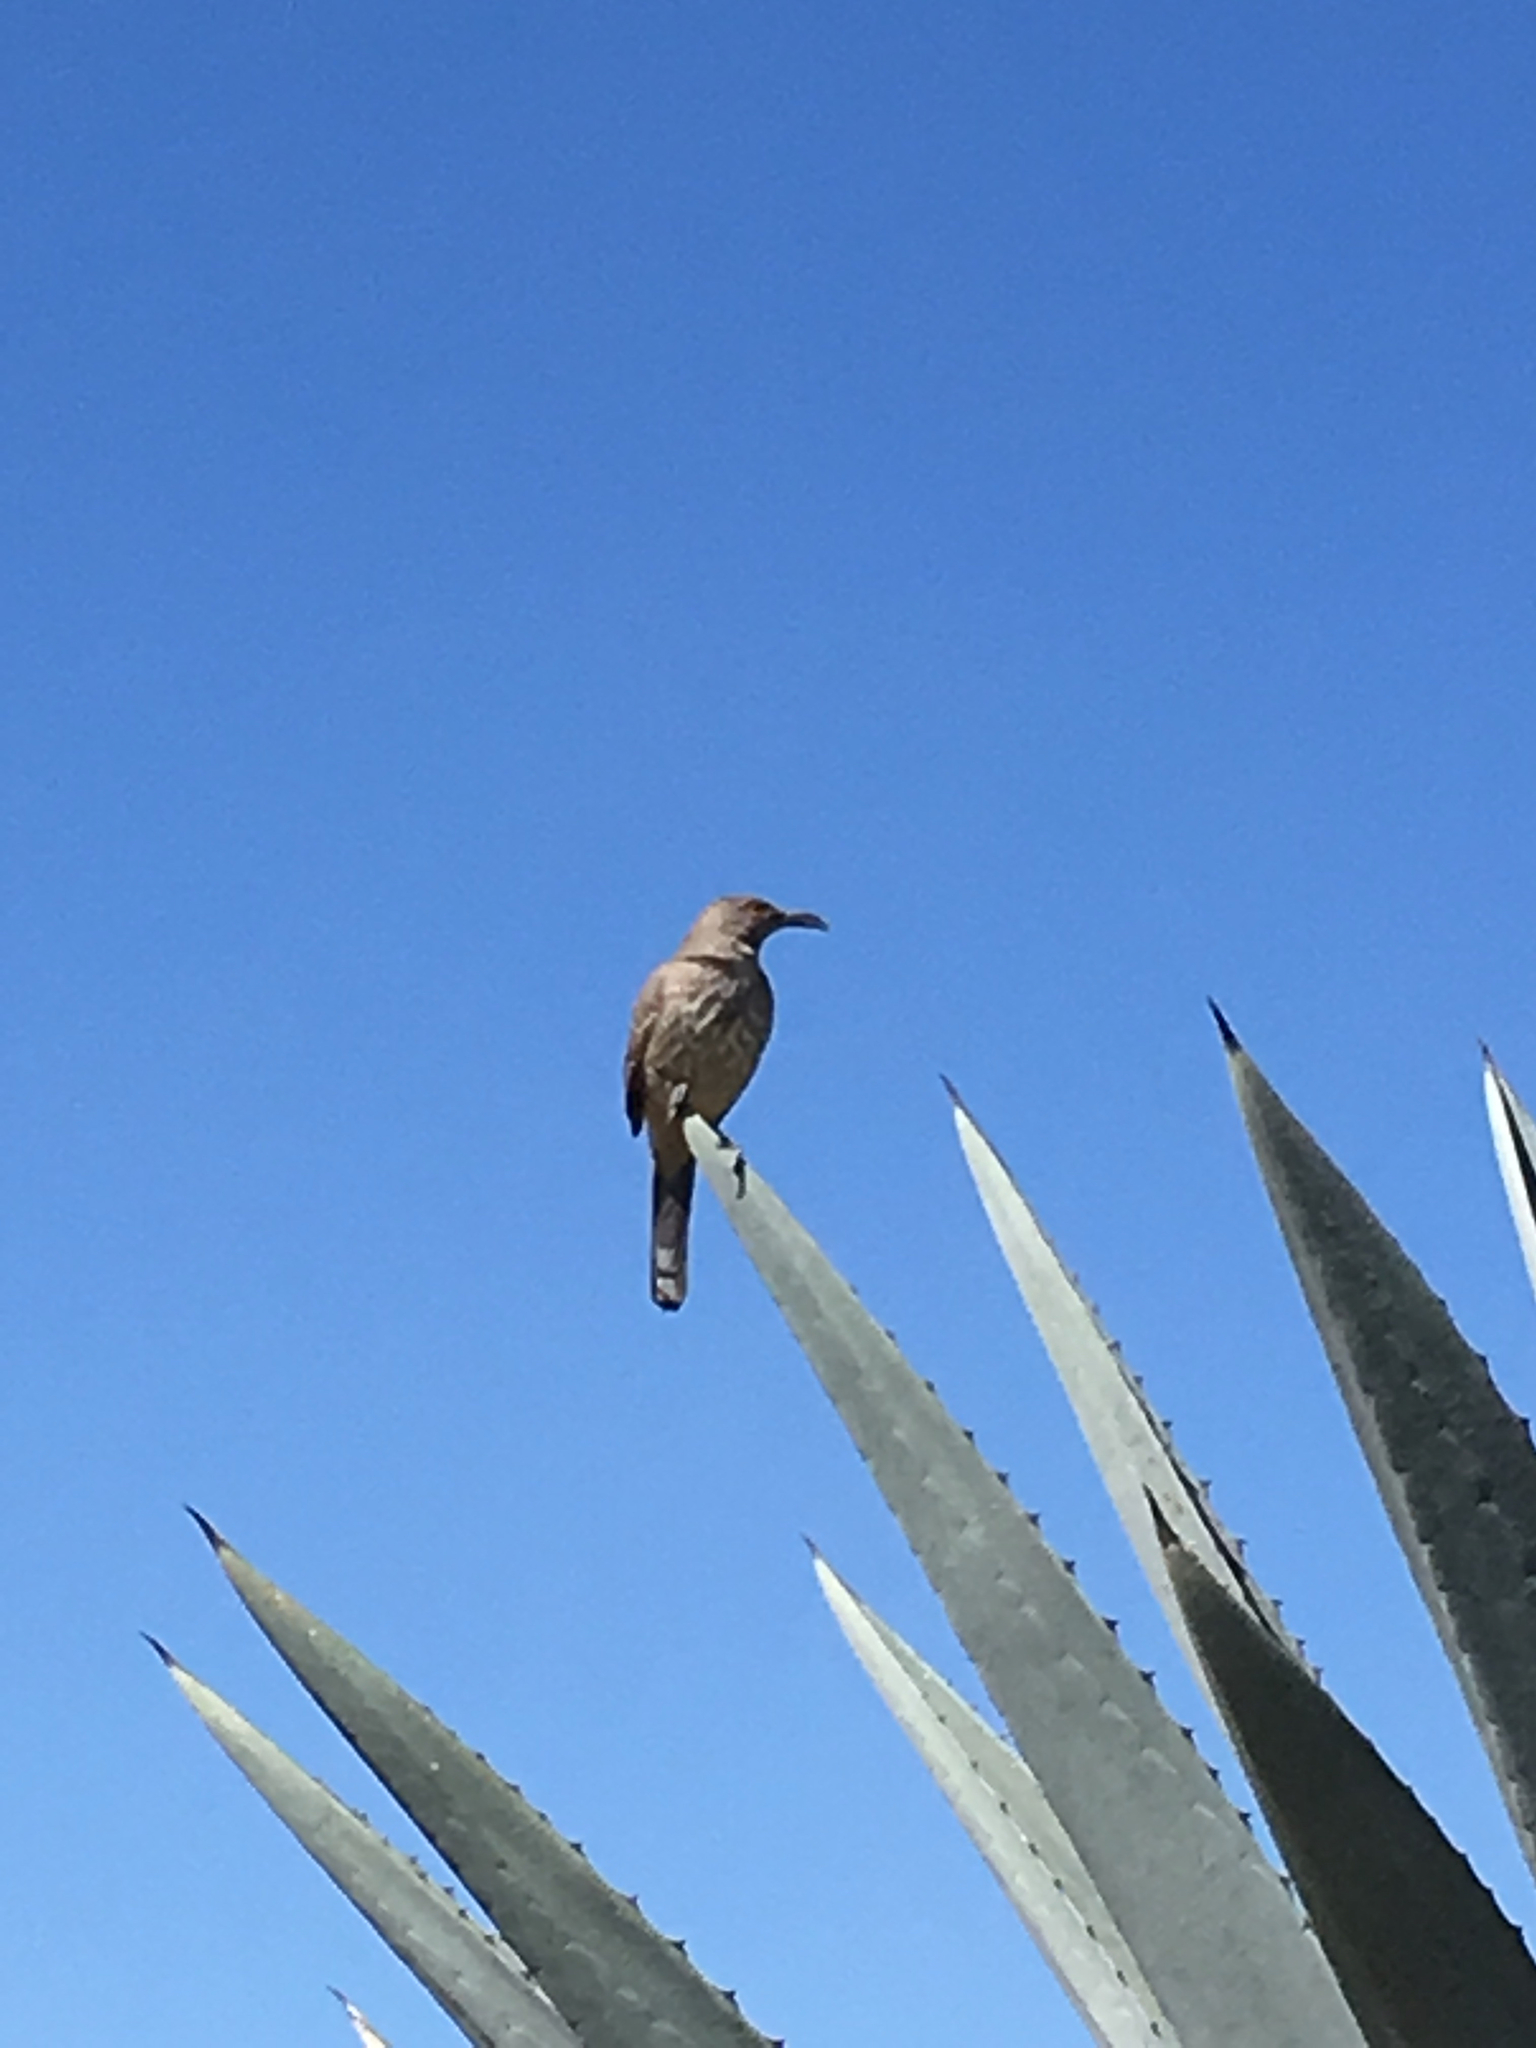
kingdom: Animalia
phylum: Chordata
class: Aves
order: Passeriformes
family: Mimidae
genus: Toxostoma
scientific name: Toxostoma curvirostre
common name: Curve-billed thrasher
